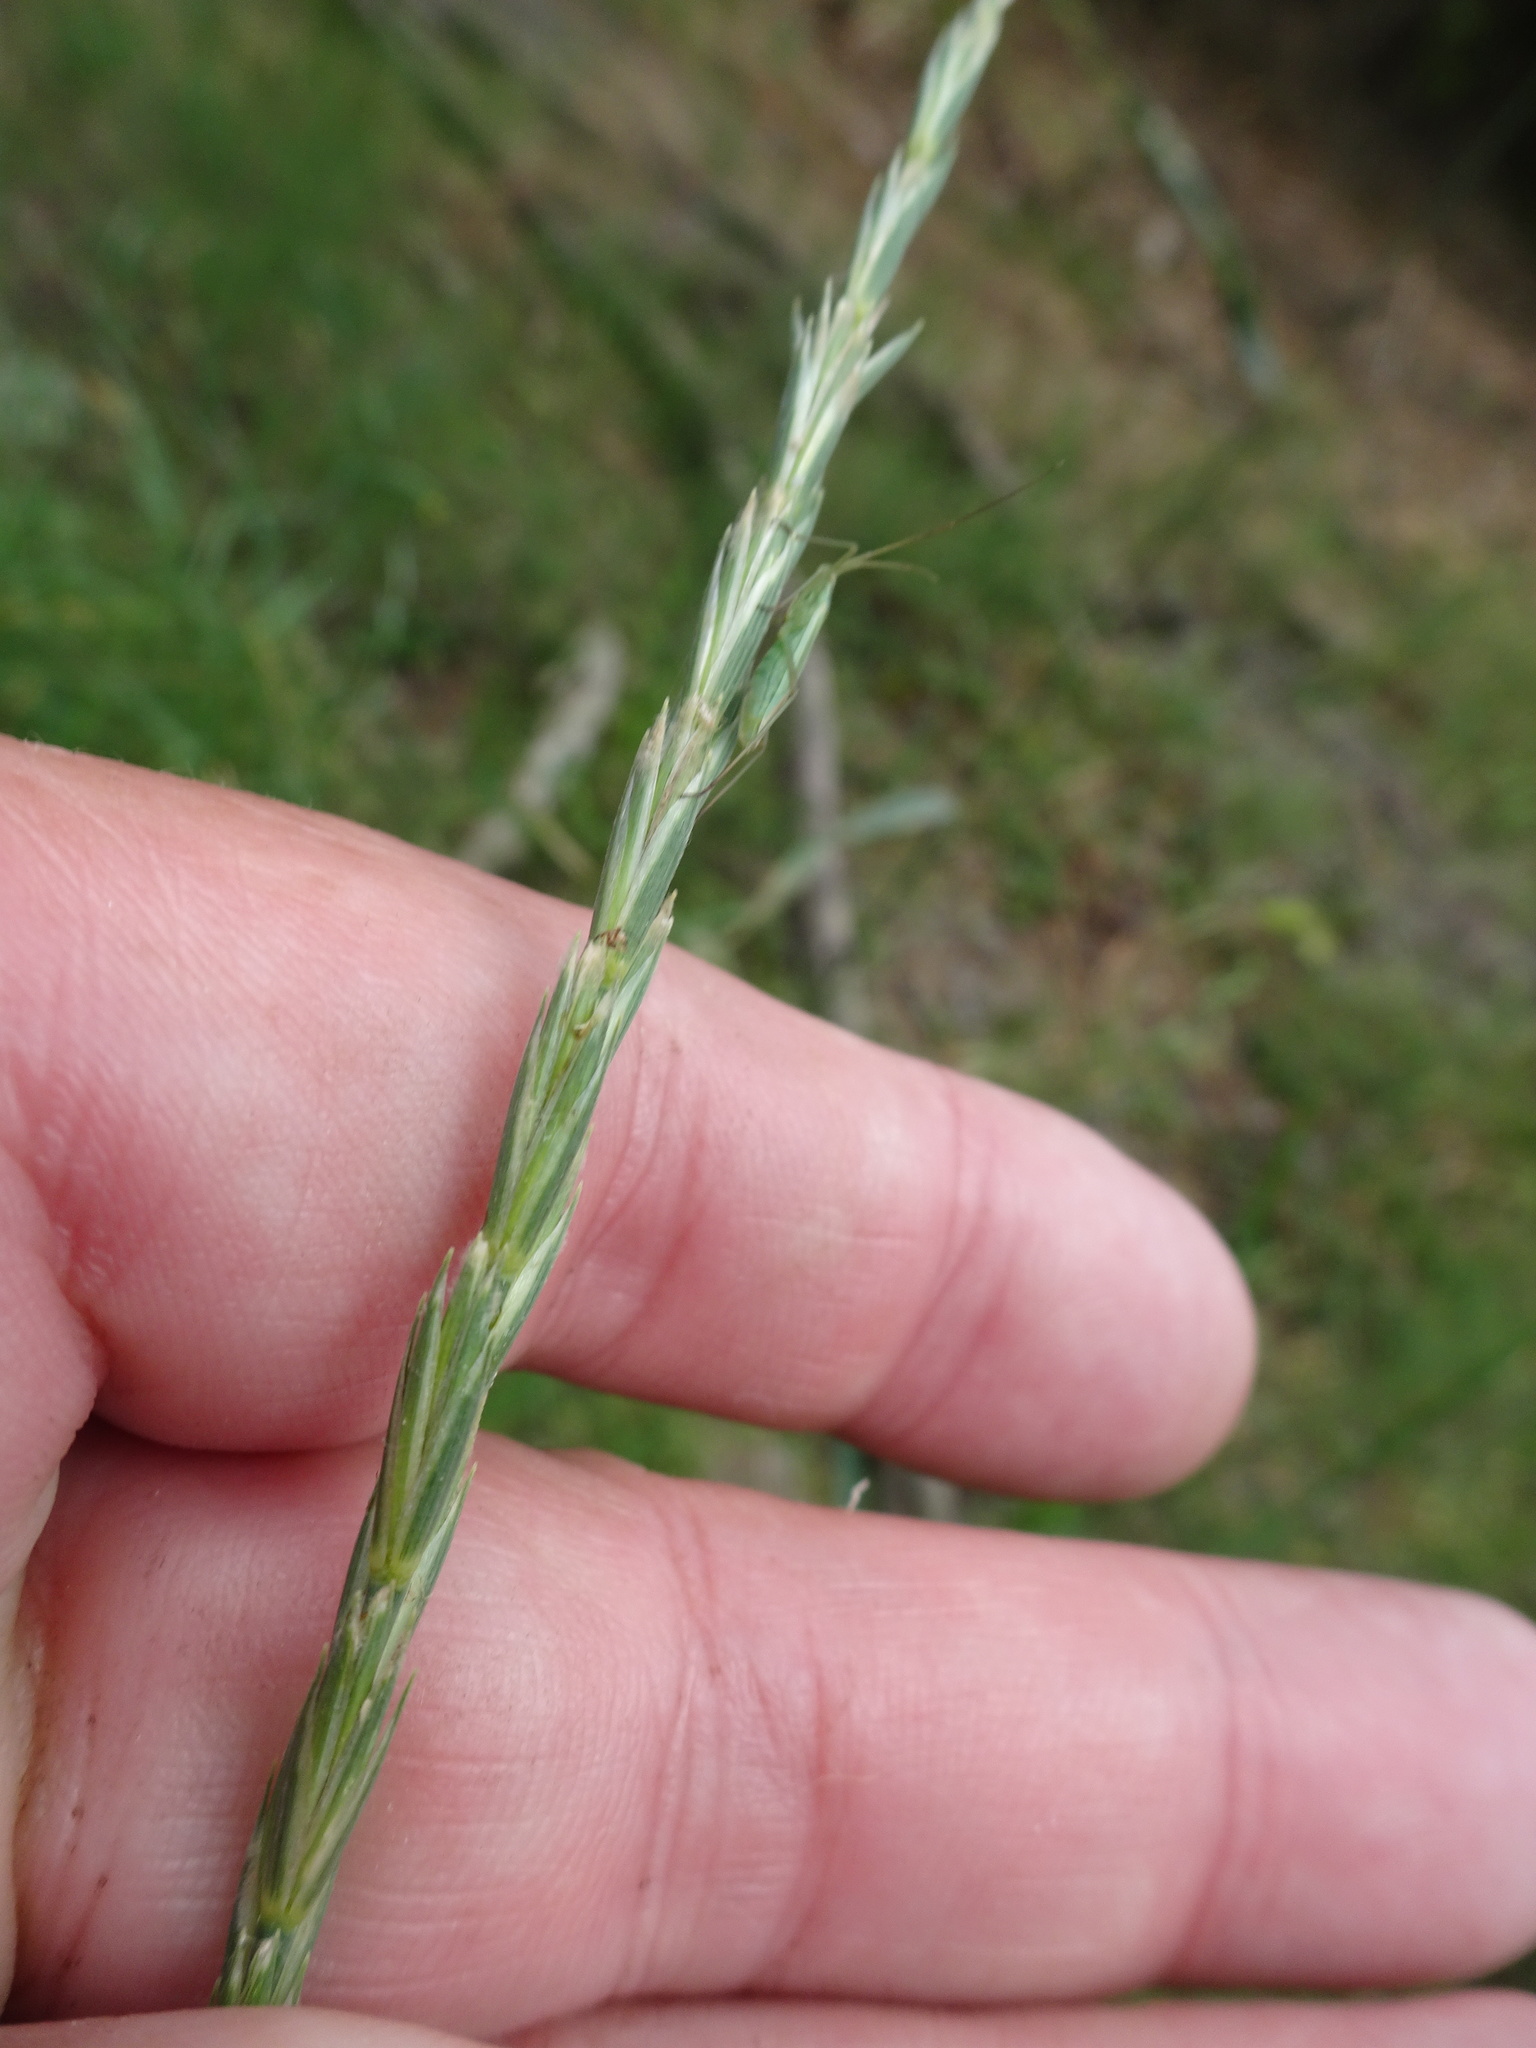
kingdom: Plantae
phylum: Tracheophyta
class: Liliopsida
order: Poales
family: Poaceae
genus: Elymus
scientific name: Elymus repens
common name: Quackgrass
